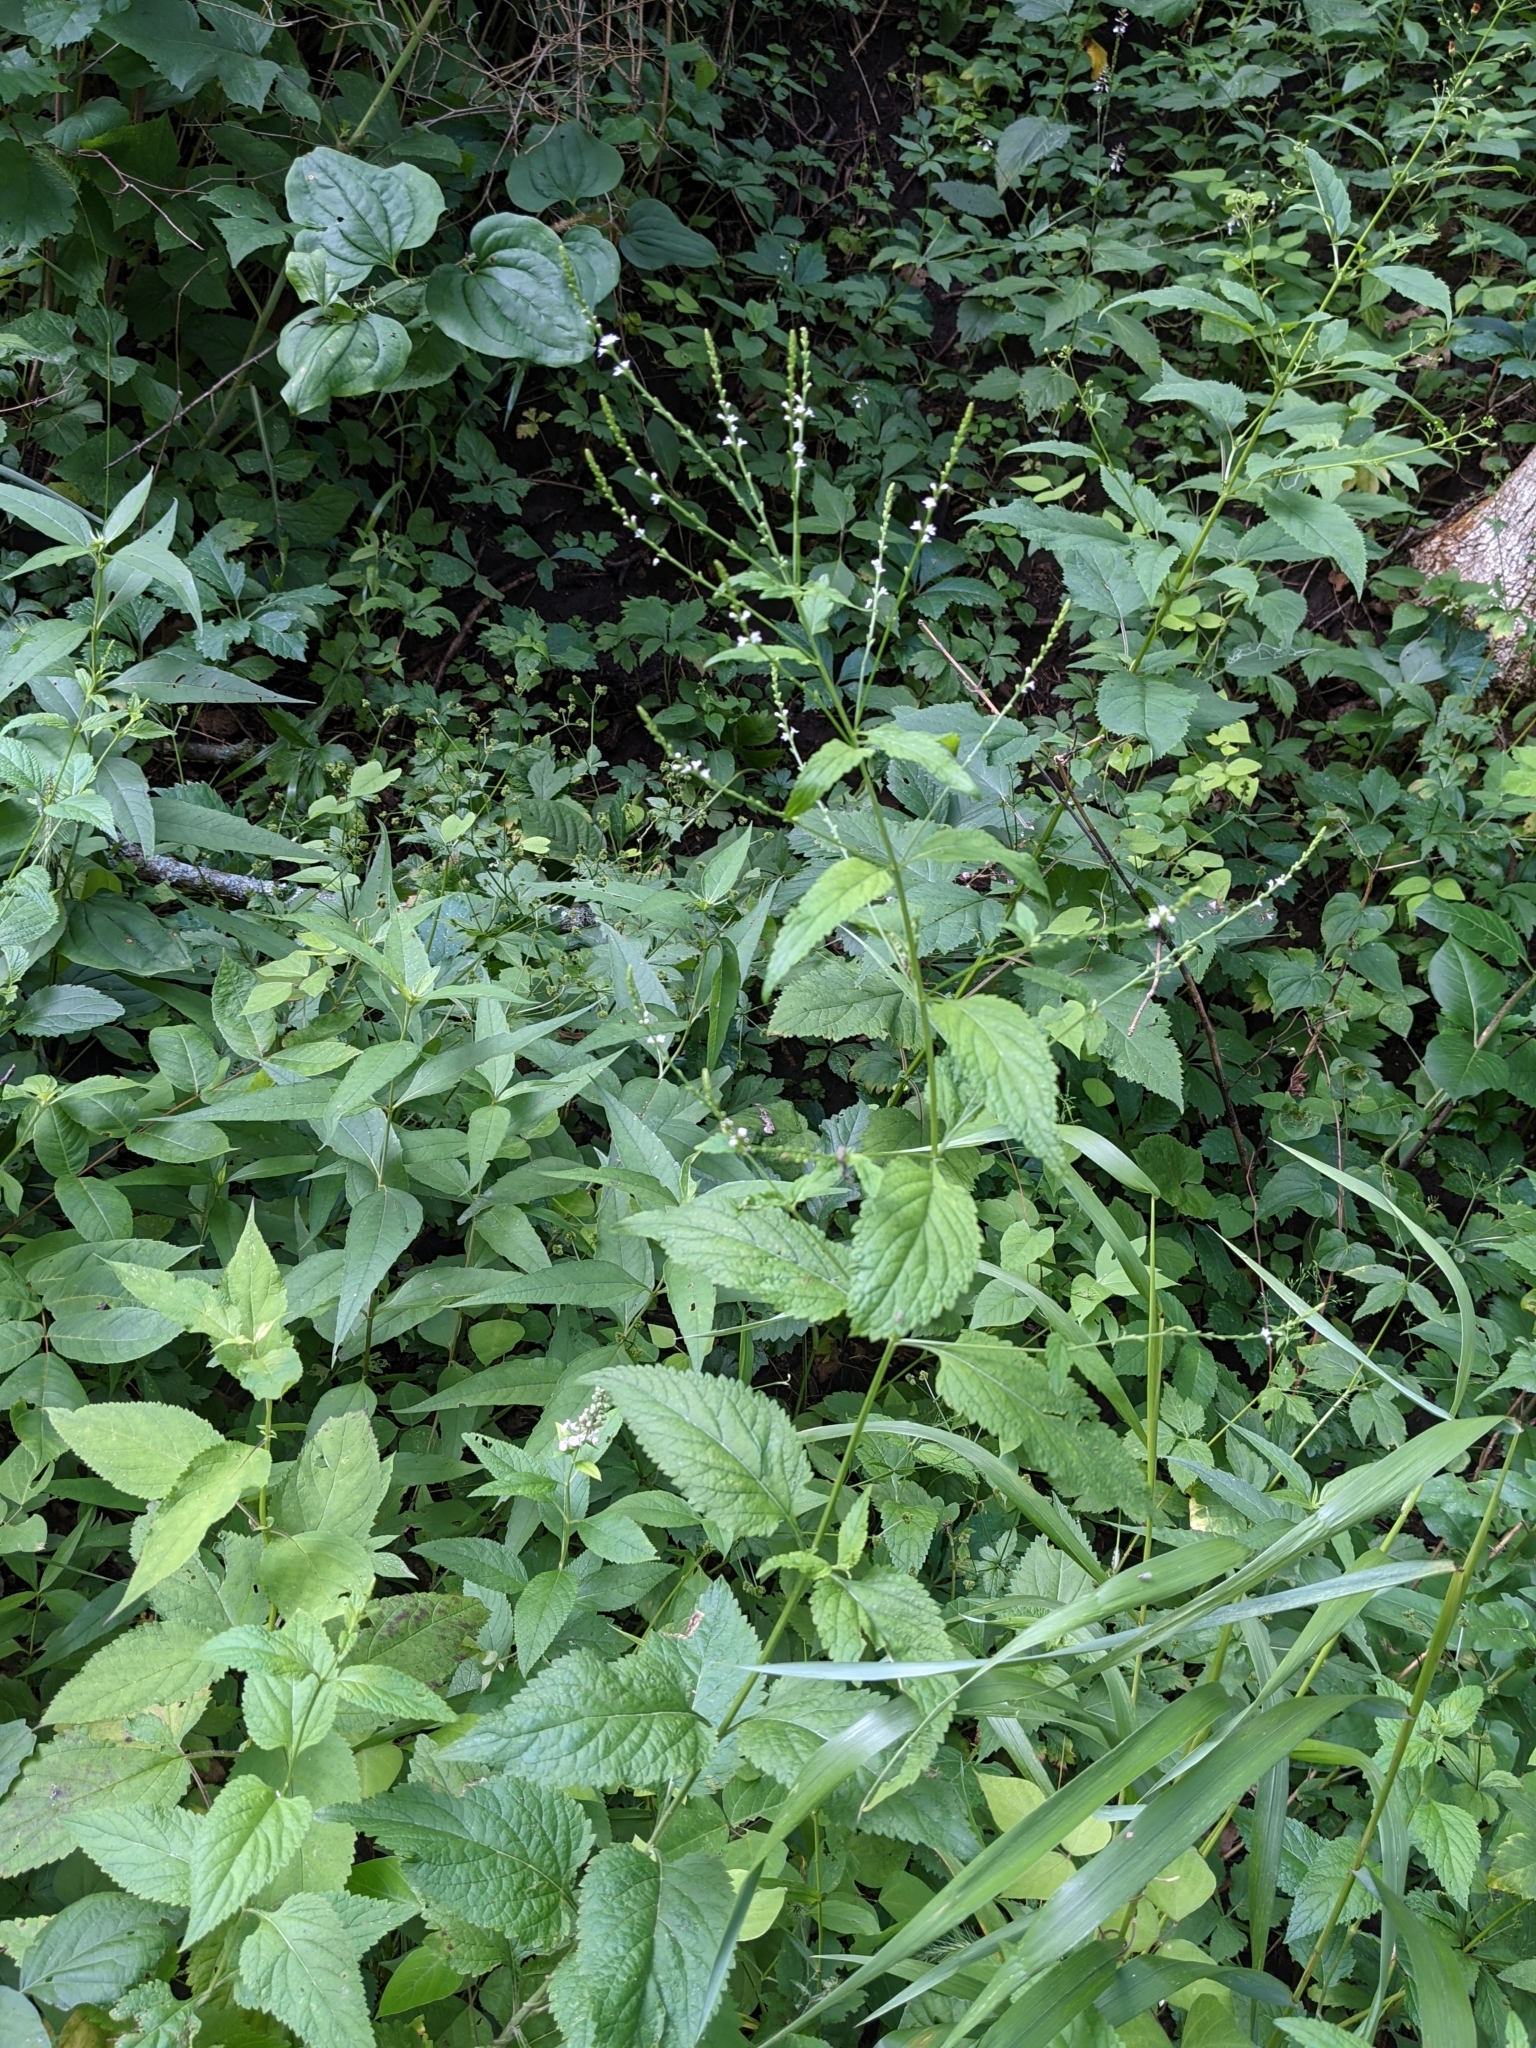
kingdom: Plantae
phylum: Tracheophyta
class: Magnoliopsida
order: Lamiales
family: Verbenaceae
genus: Verbena
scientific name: Verbena urticifolia
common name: Nettle-leaved vervain
